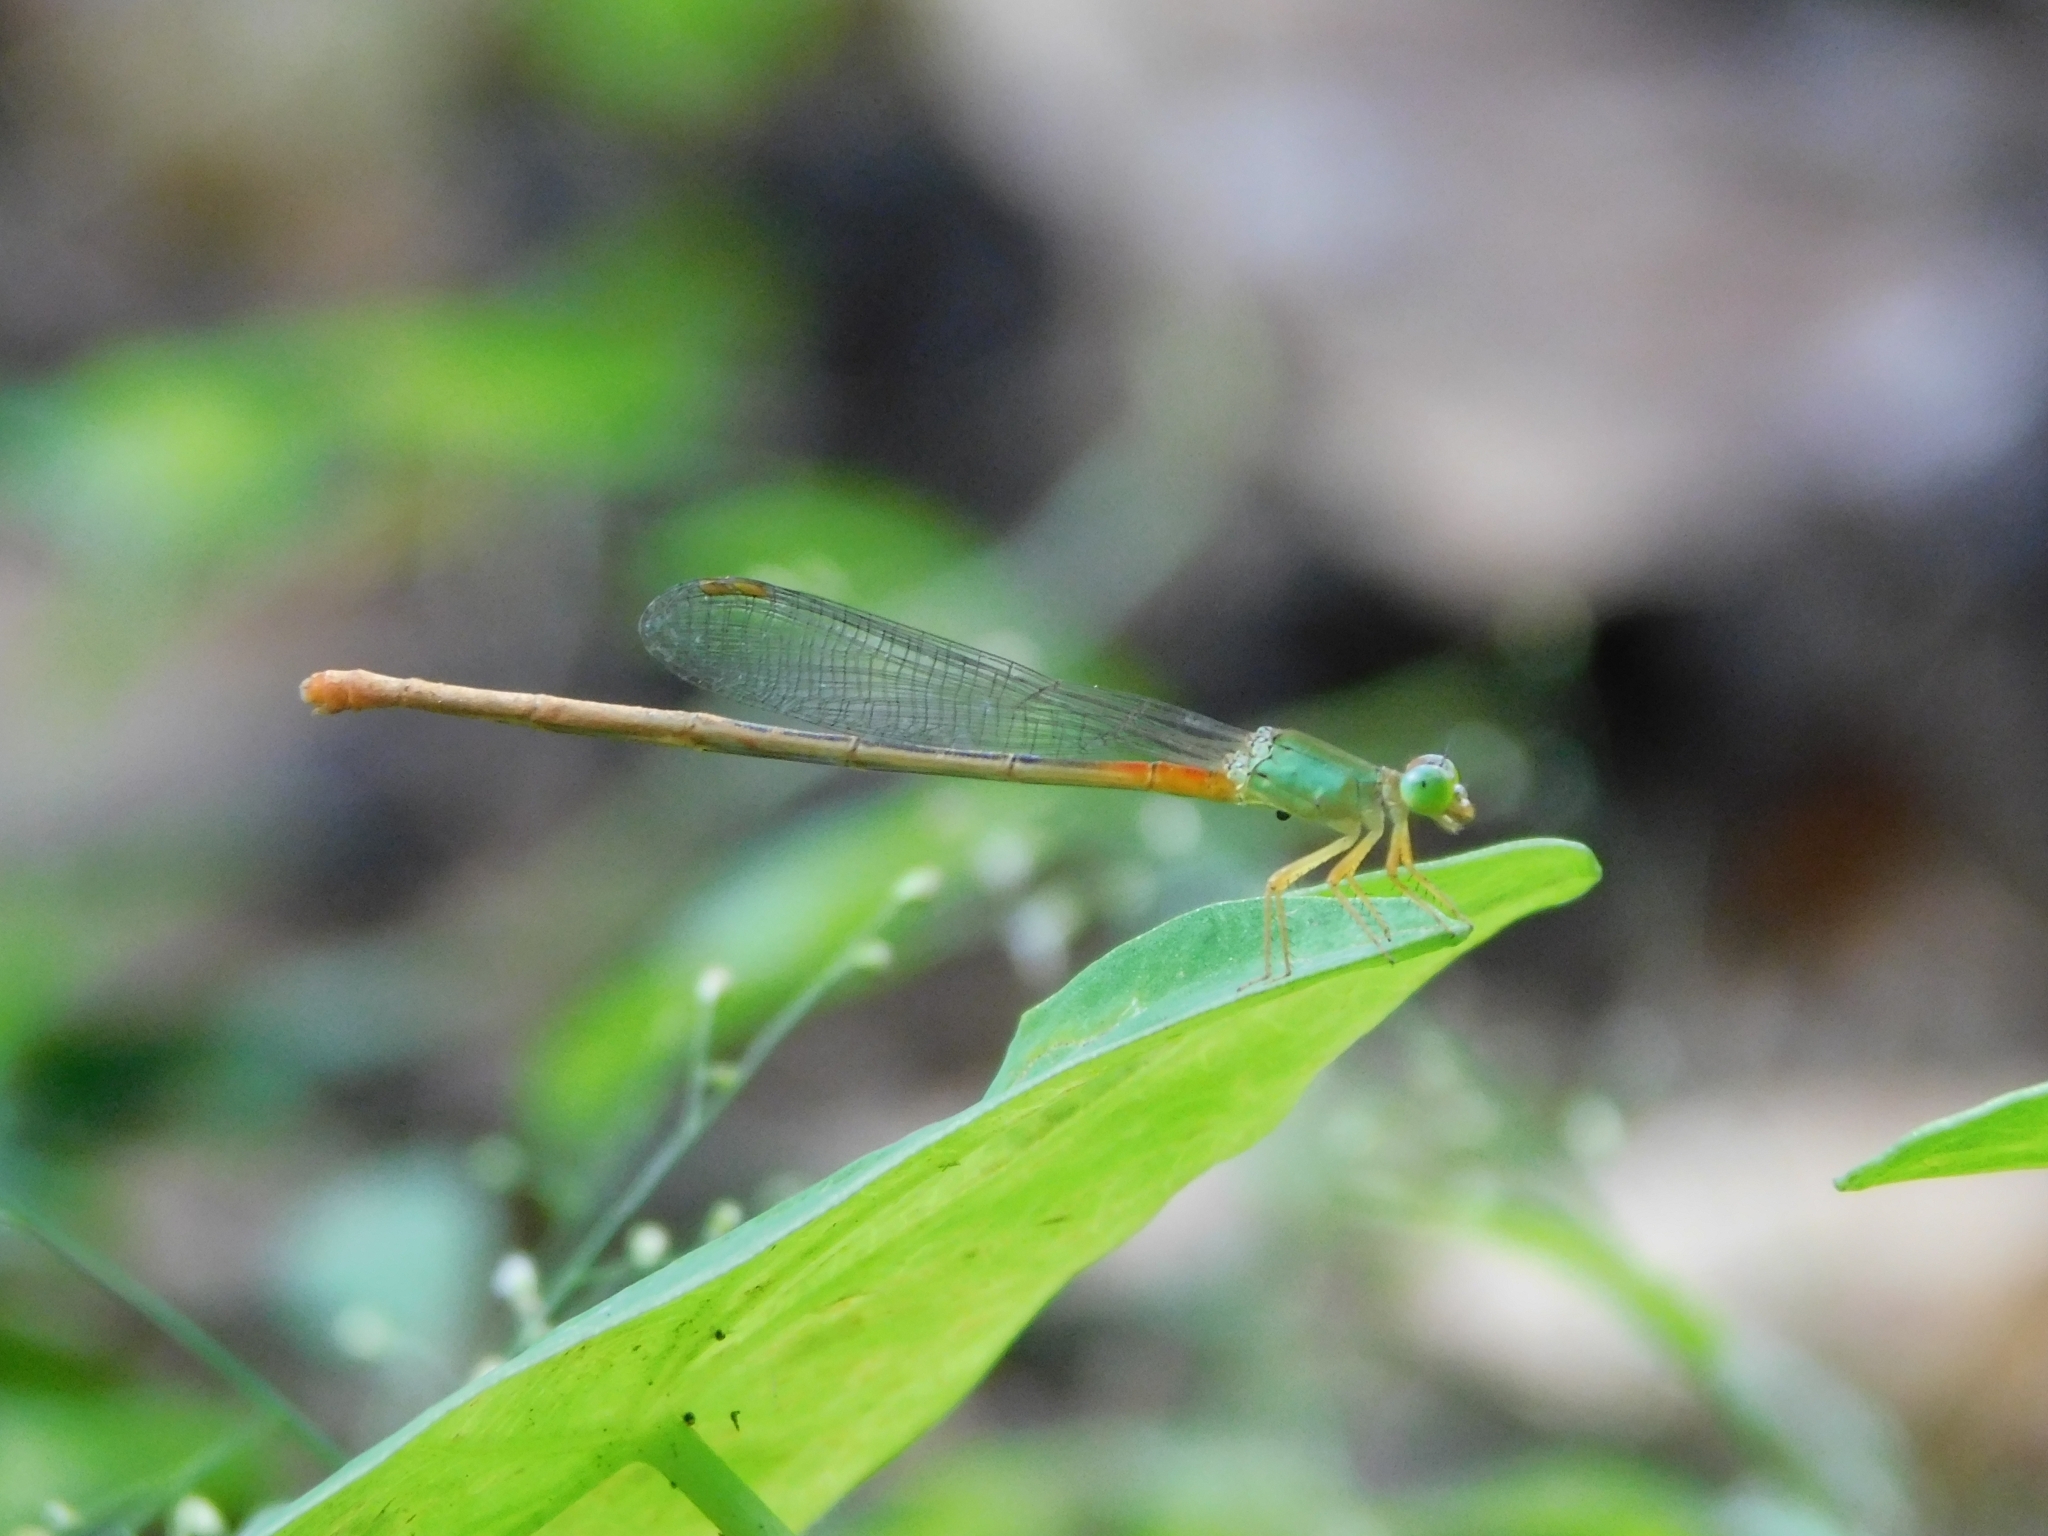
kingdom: Animalia
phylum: Arthropoda
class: Insecta
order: Odonata
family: Coenagrionidae
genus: Ceriagrion
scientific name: Ceriagrion cerinorubellum
